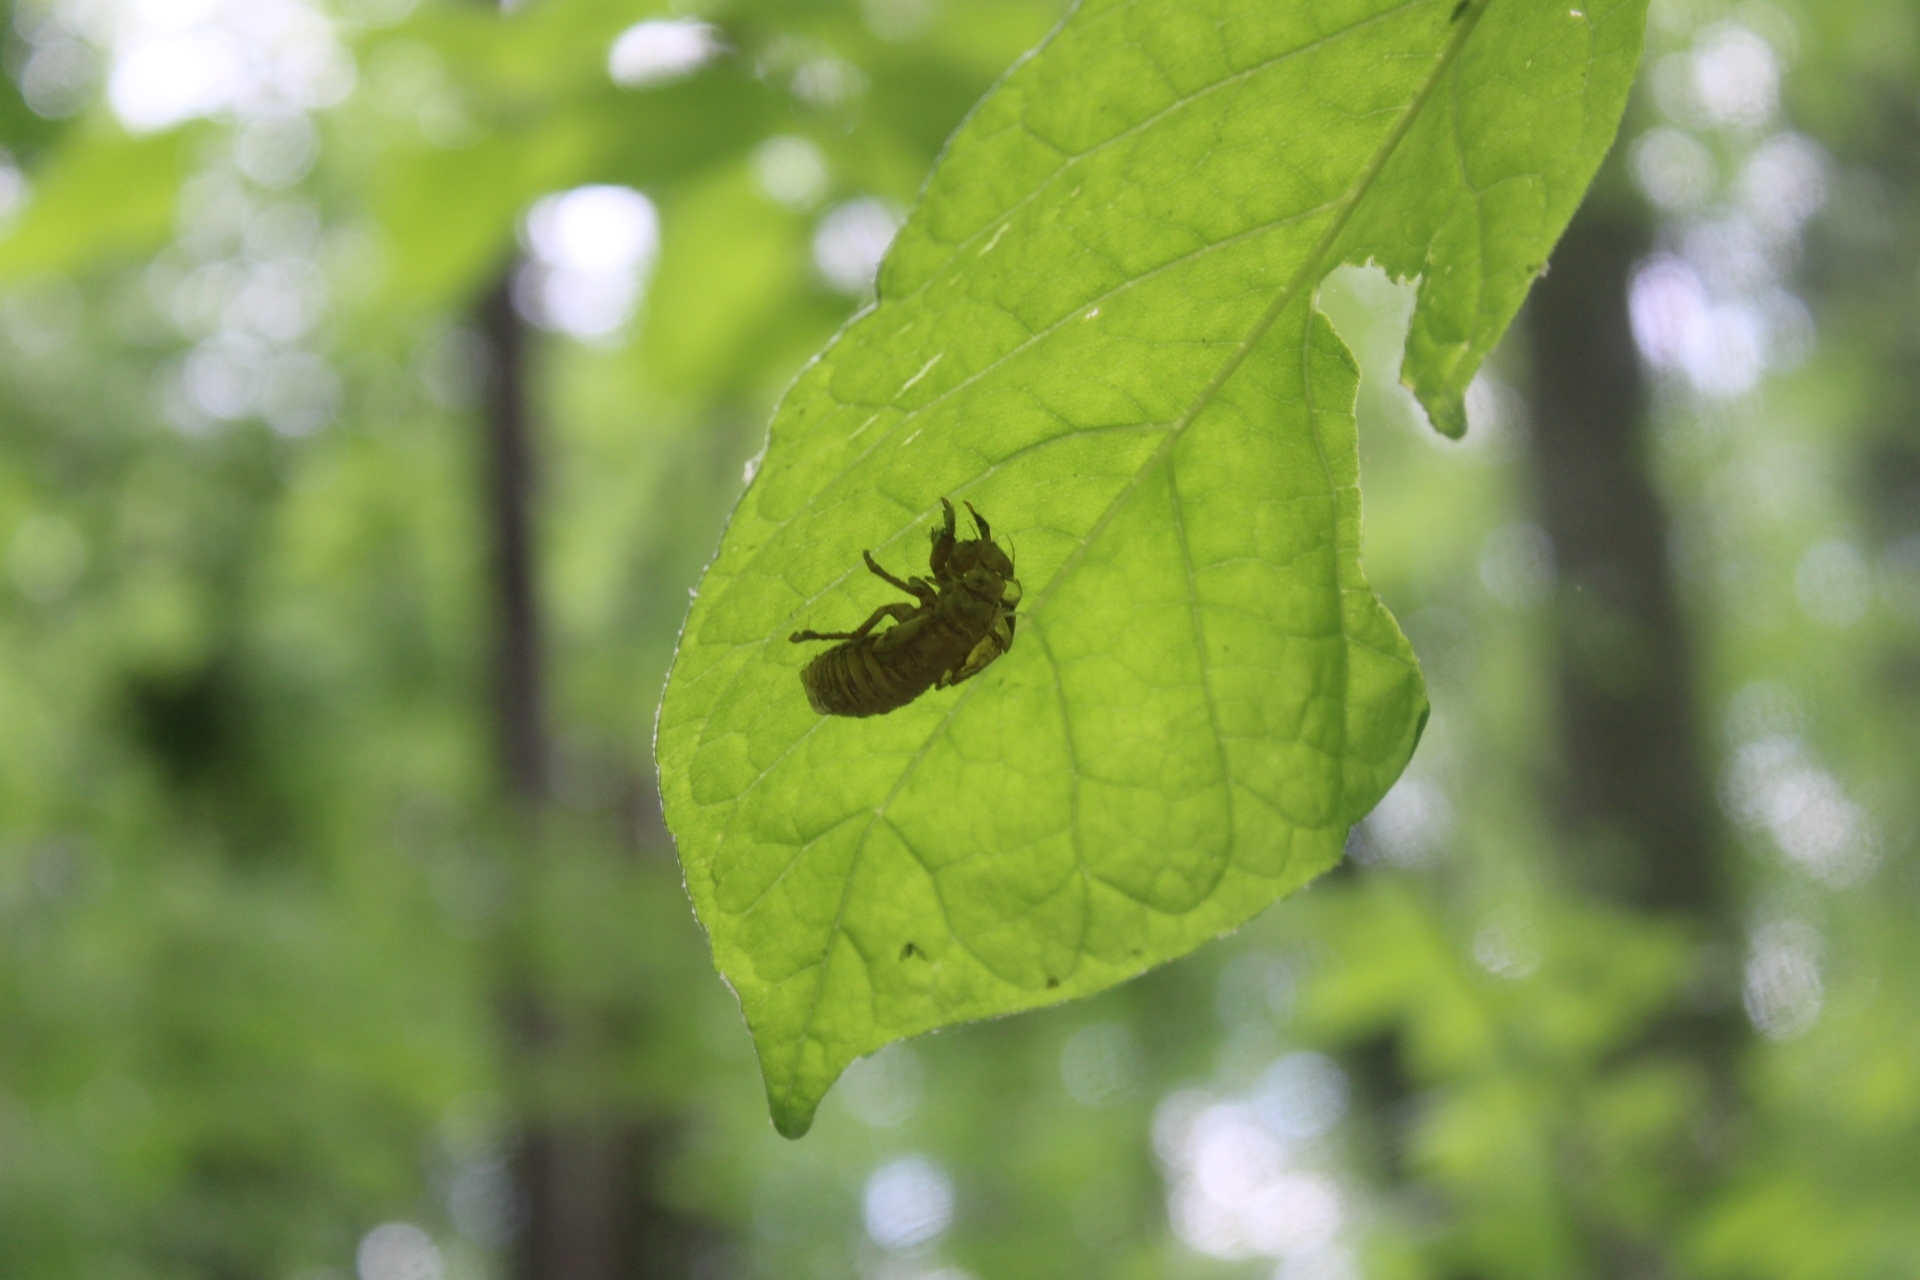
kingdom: Animalia
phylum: Arthropoda
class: Insecta
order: Hemiptera
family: Cicadidae
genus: Magicicada
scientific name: Magicicada
